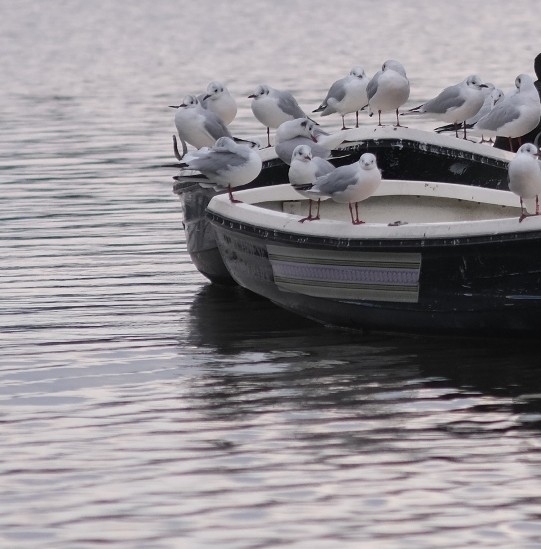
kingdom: Animalia
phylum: Chordata
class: Aves
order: Charadriiformes
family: Laridae
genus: Chroicocephalus
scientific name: Chroicocephalus ridibundus
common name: Black-headed gull
